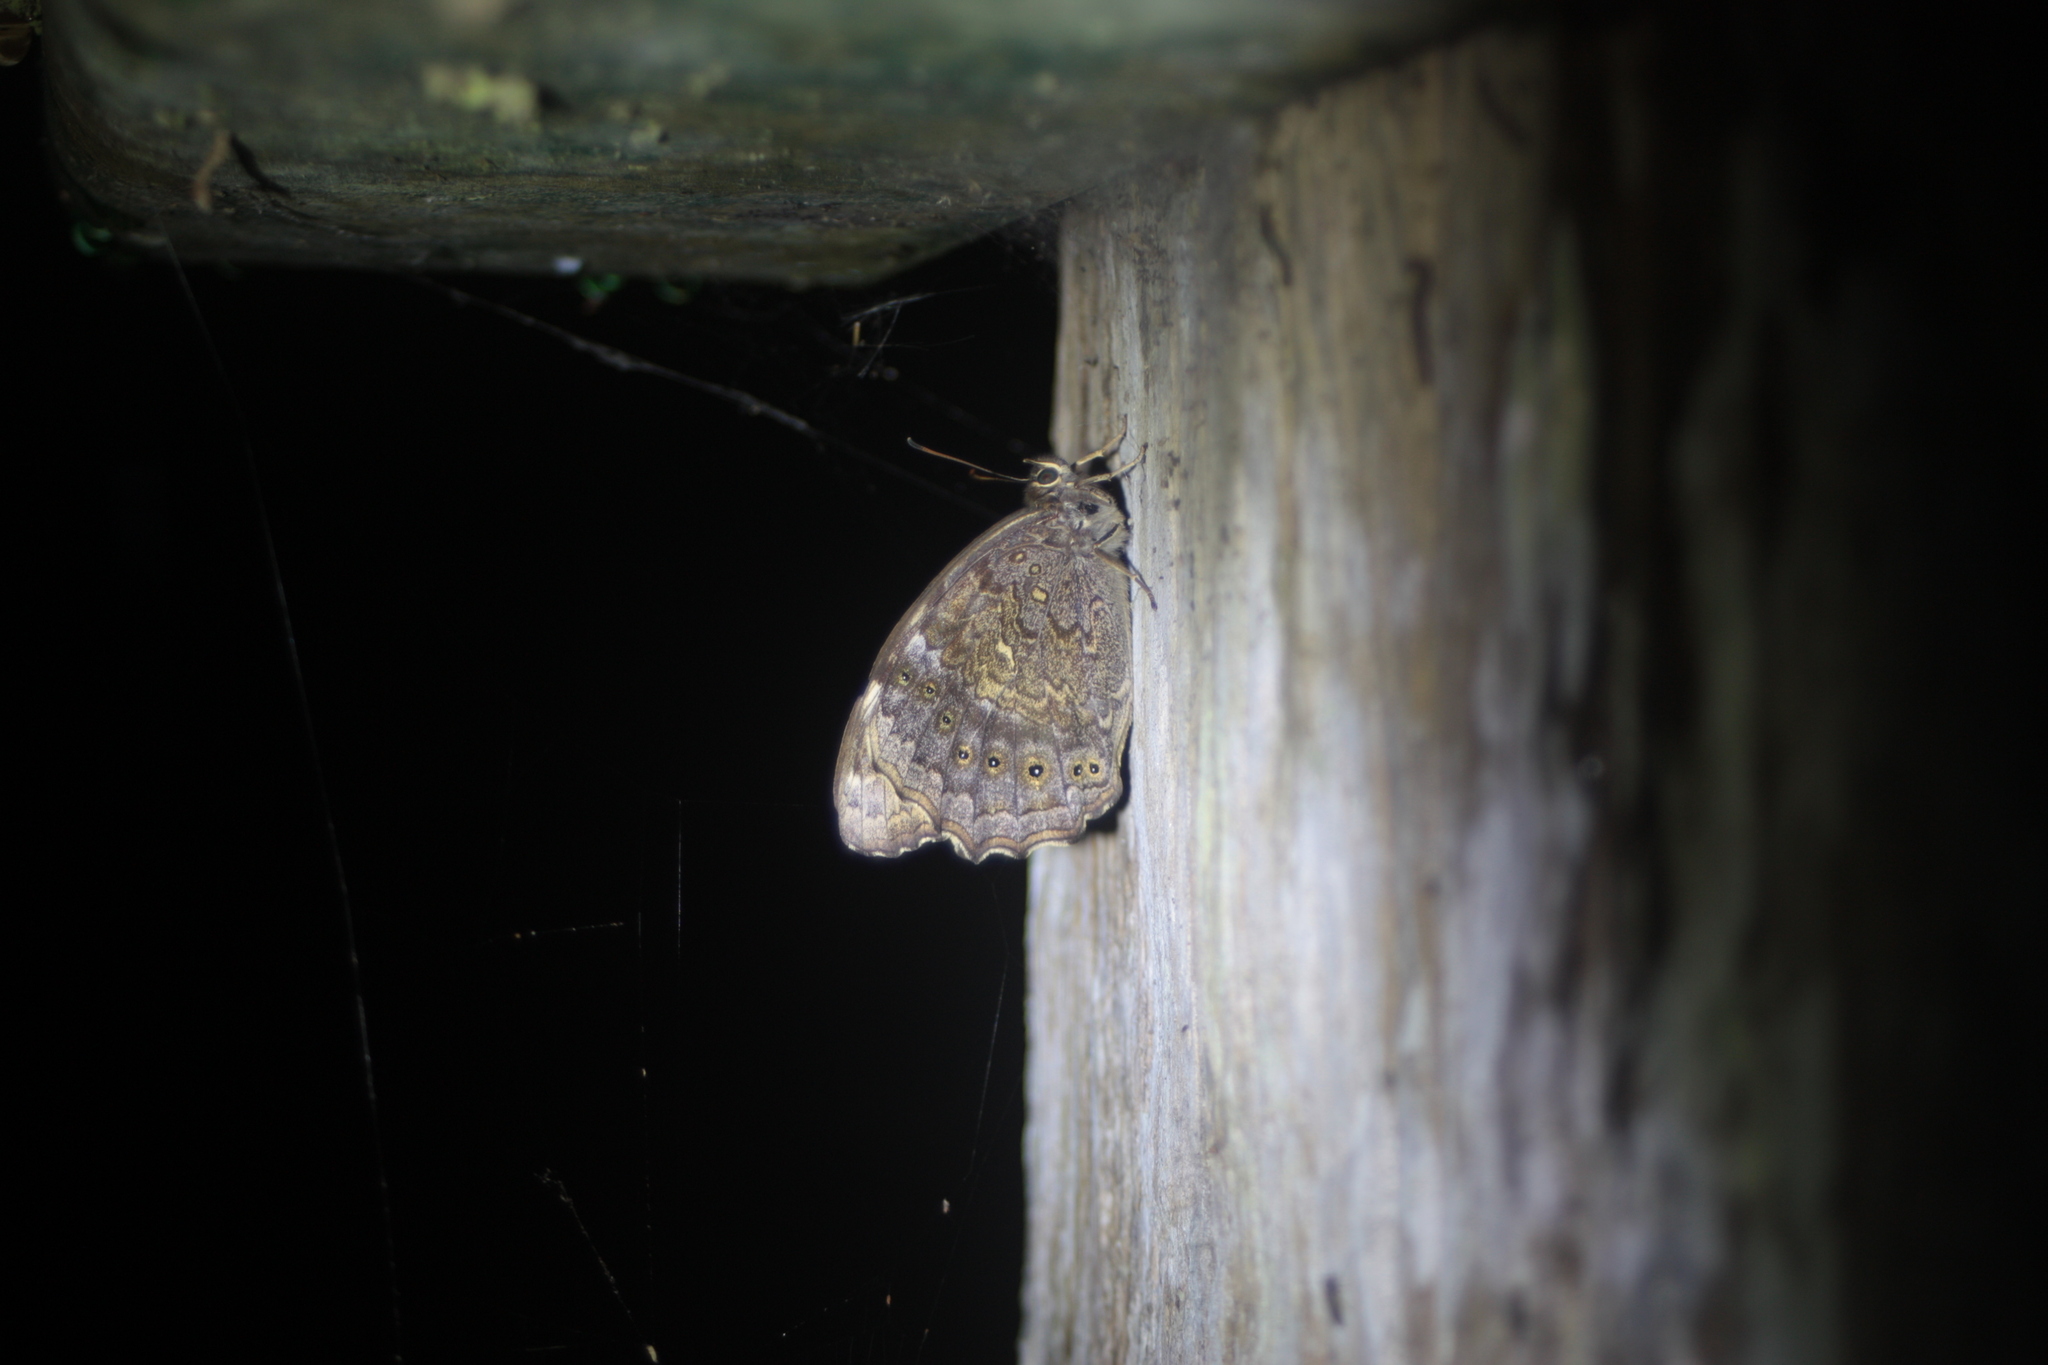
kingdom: Animalia
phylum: Arthropoda
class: Insecta
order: Lepidoptera
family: Nymphalidae
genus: Neope
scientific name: Neope muirheadii
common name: Black-spotted labyrinth
